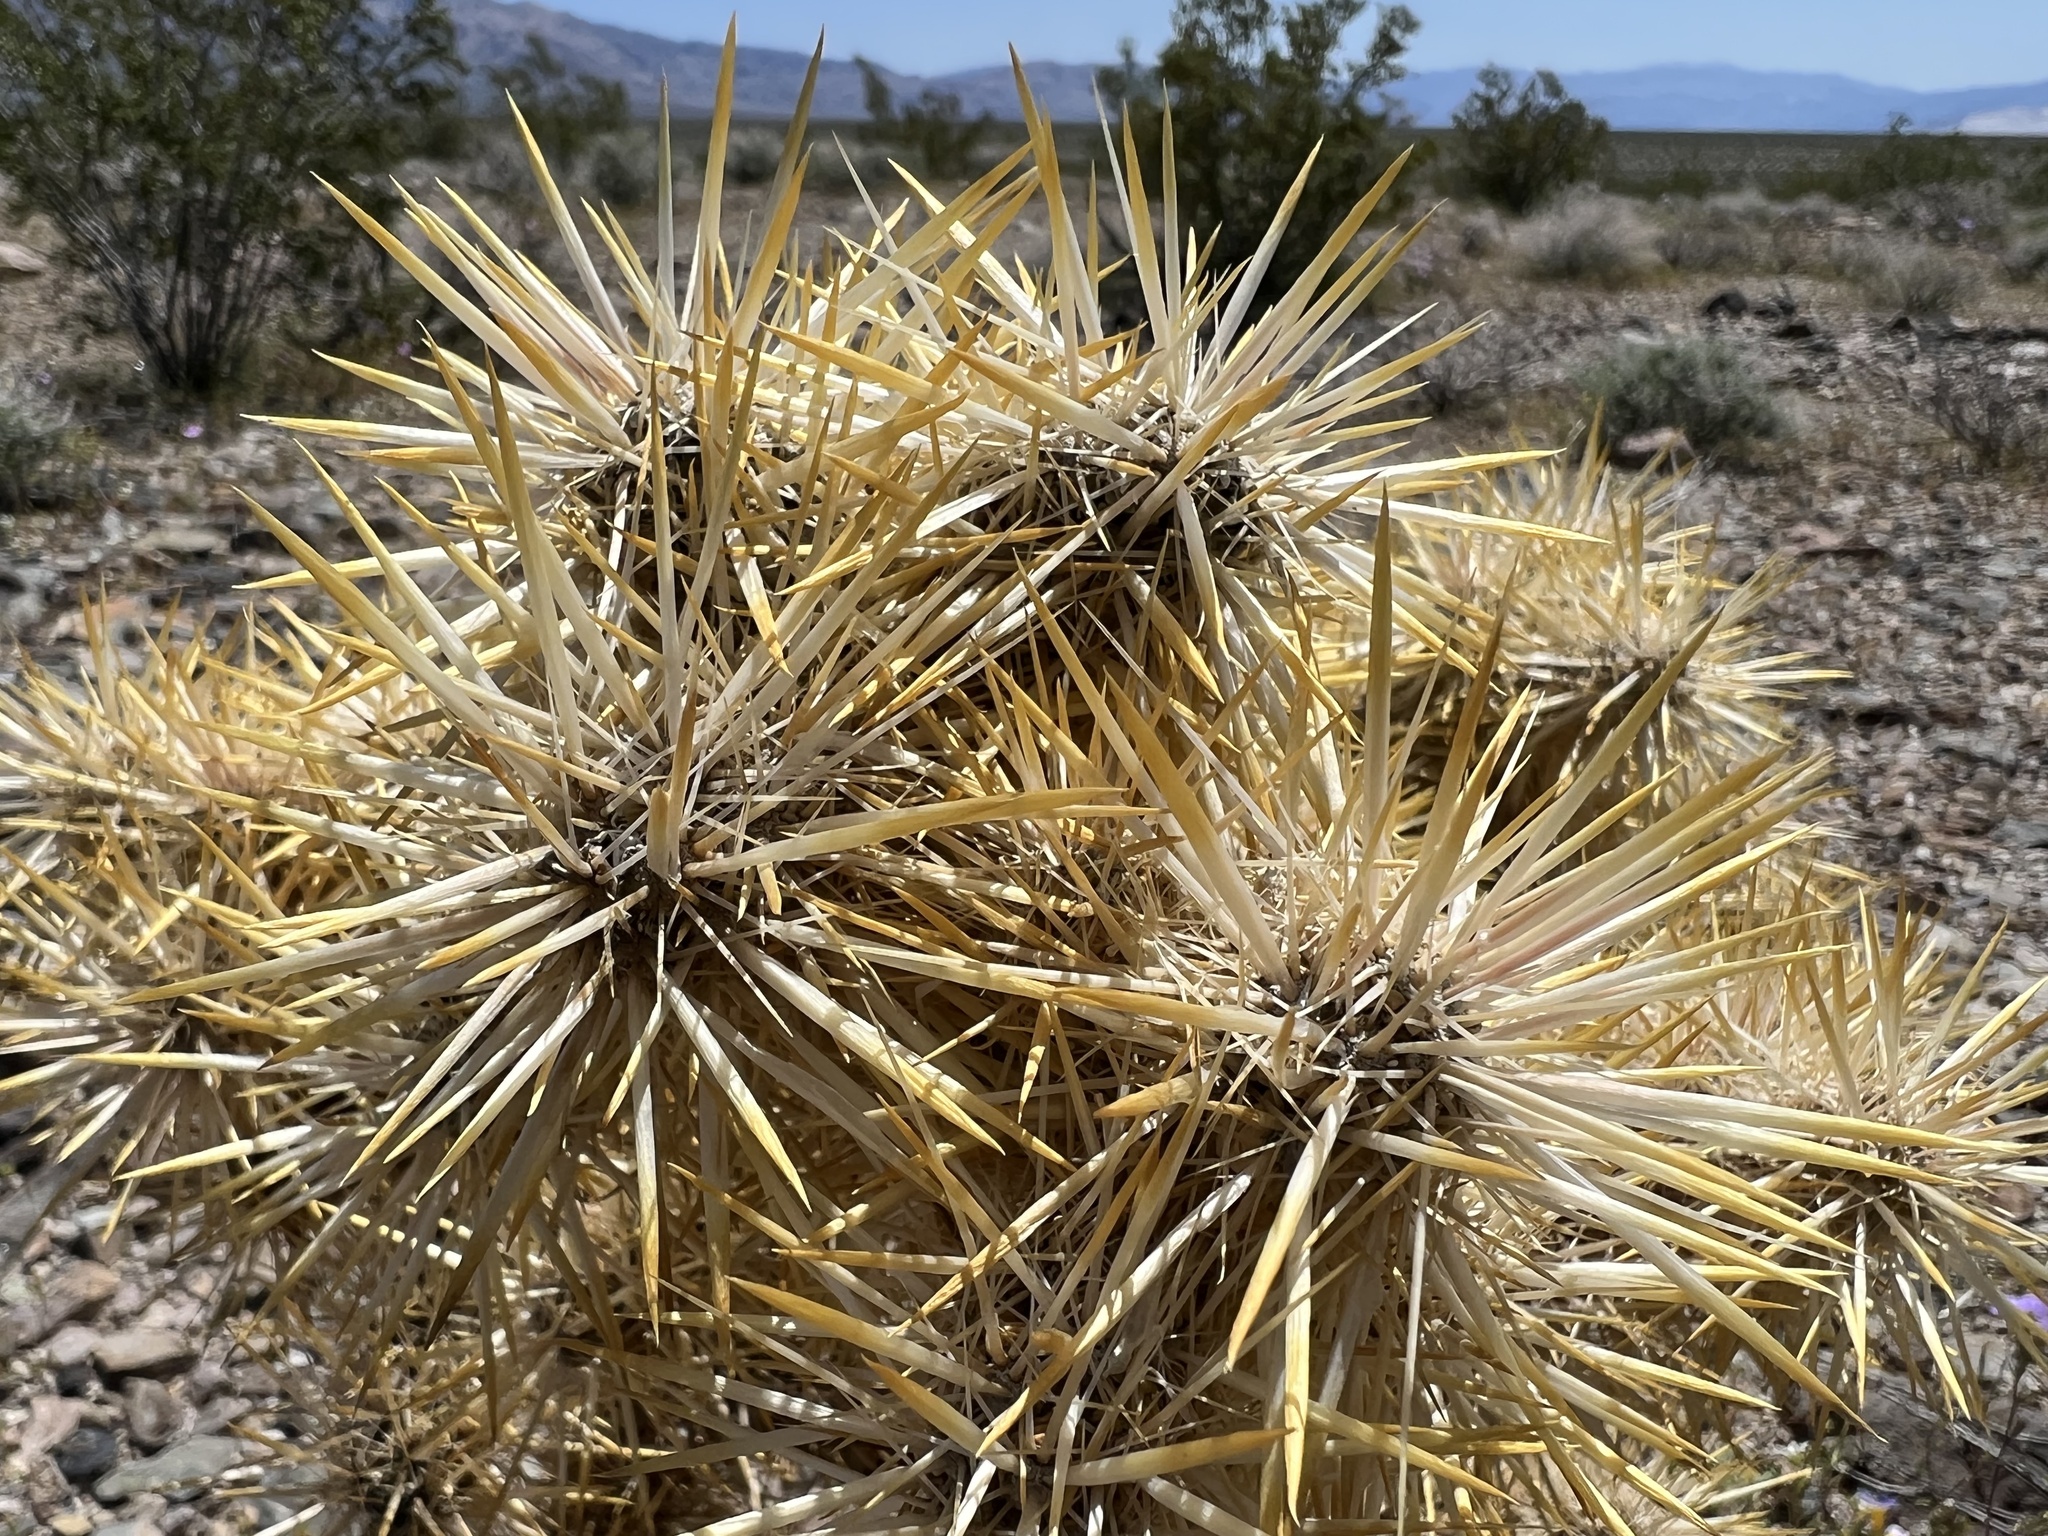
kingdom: Plantae
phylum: Tracheophyta
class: Magnoliopsida
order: Caryophyllales
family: Cactaceae
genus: Cylindropuntia
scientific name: Cylindropuntia echinocarpa
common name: Ground cholla
